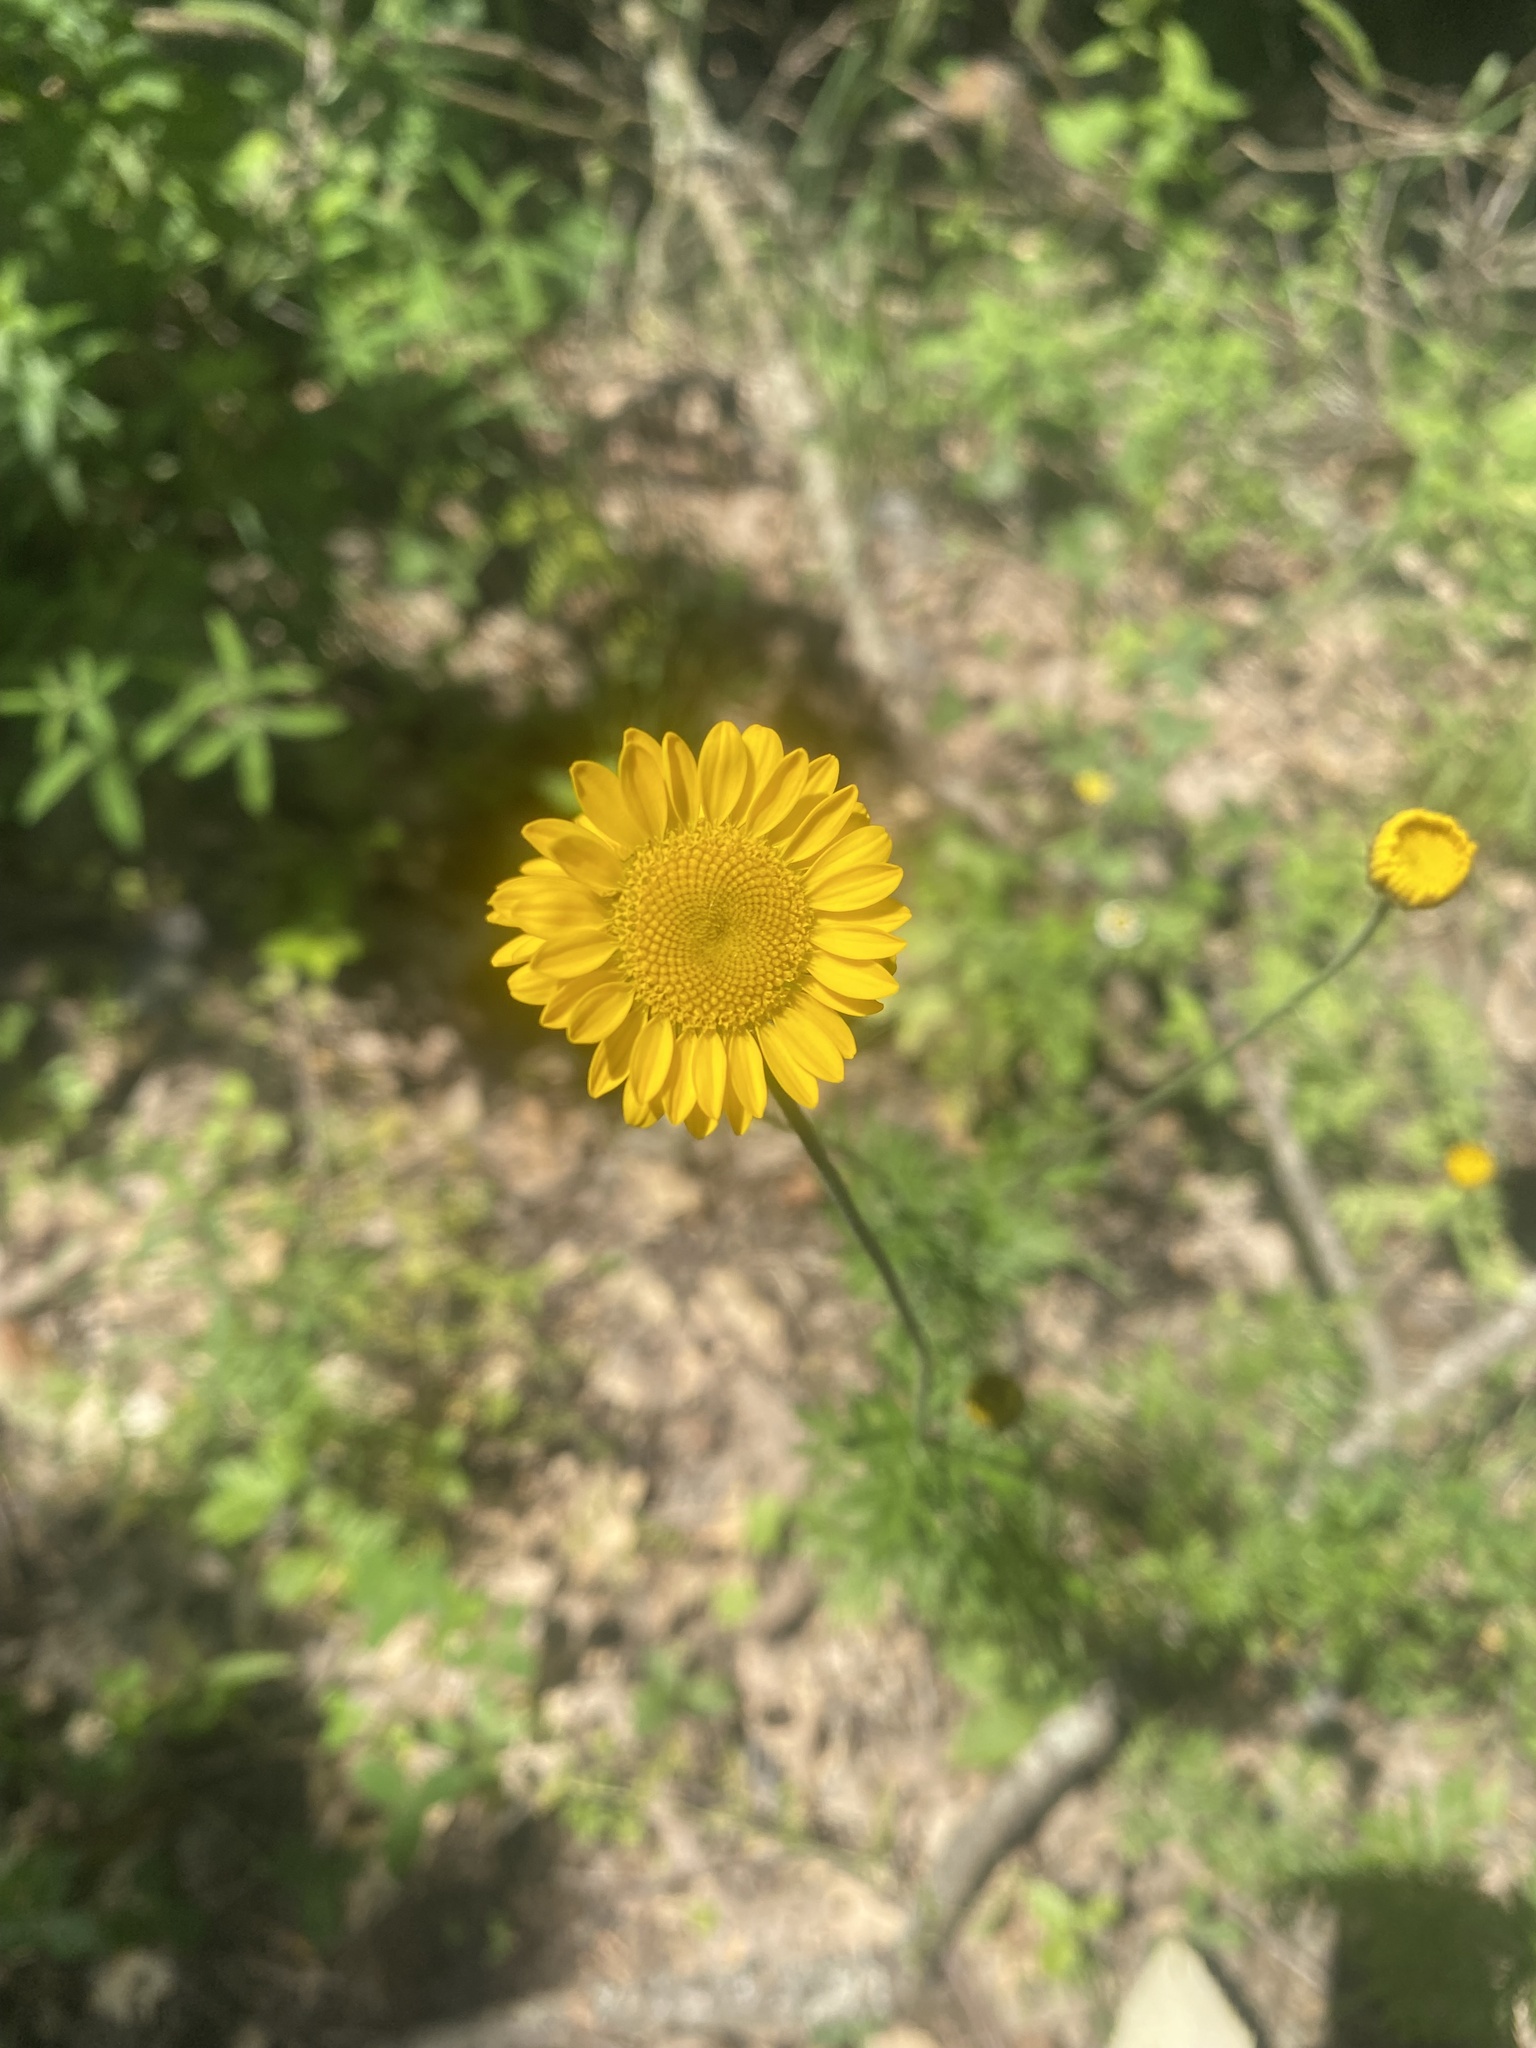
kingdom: Plantae
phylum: Tracheophyta
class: Magnoliopsida
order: Asterales
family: Asteraceae
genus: Cota
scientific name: Cota tinctoria
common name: Golden chamomile
